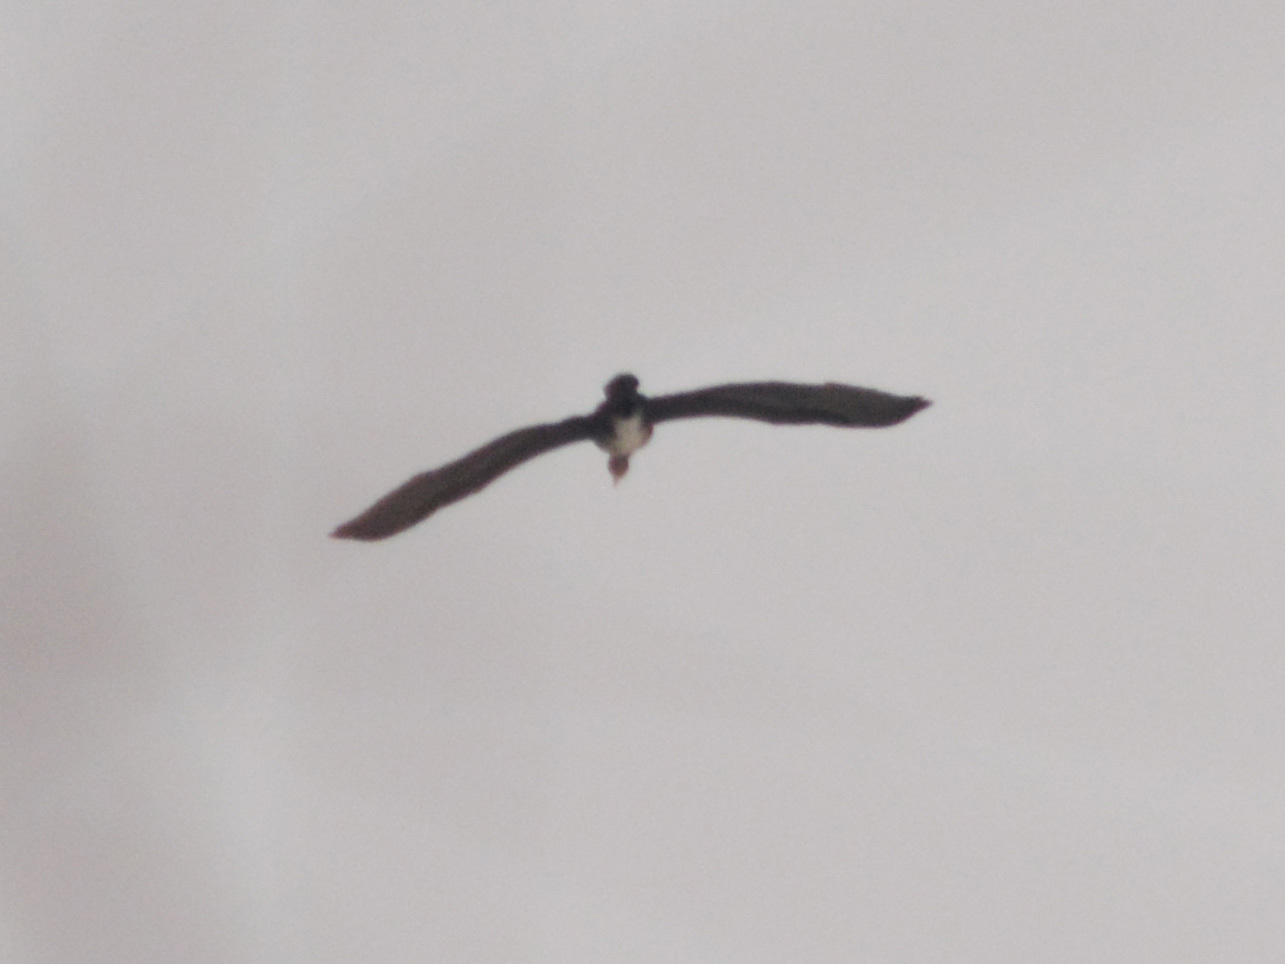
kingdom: Animalia
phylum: Chordata
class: Aves
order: Suliformes
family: Phalacrocoracidae
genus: Phalacrocorax
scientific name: Phalacrocorax carbo
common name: Great cormorant
